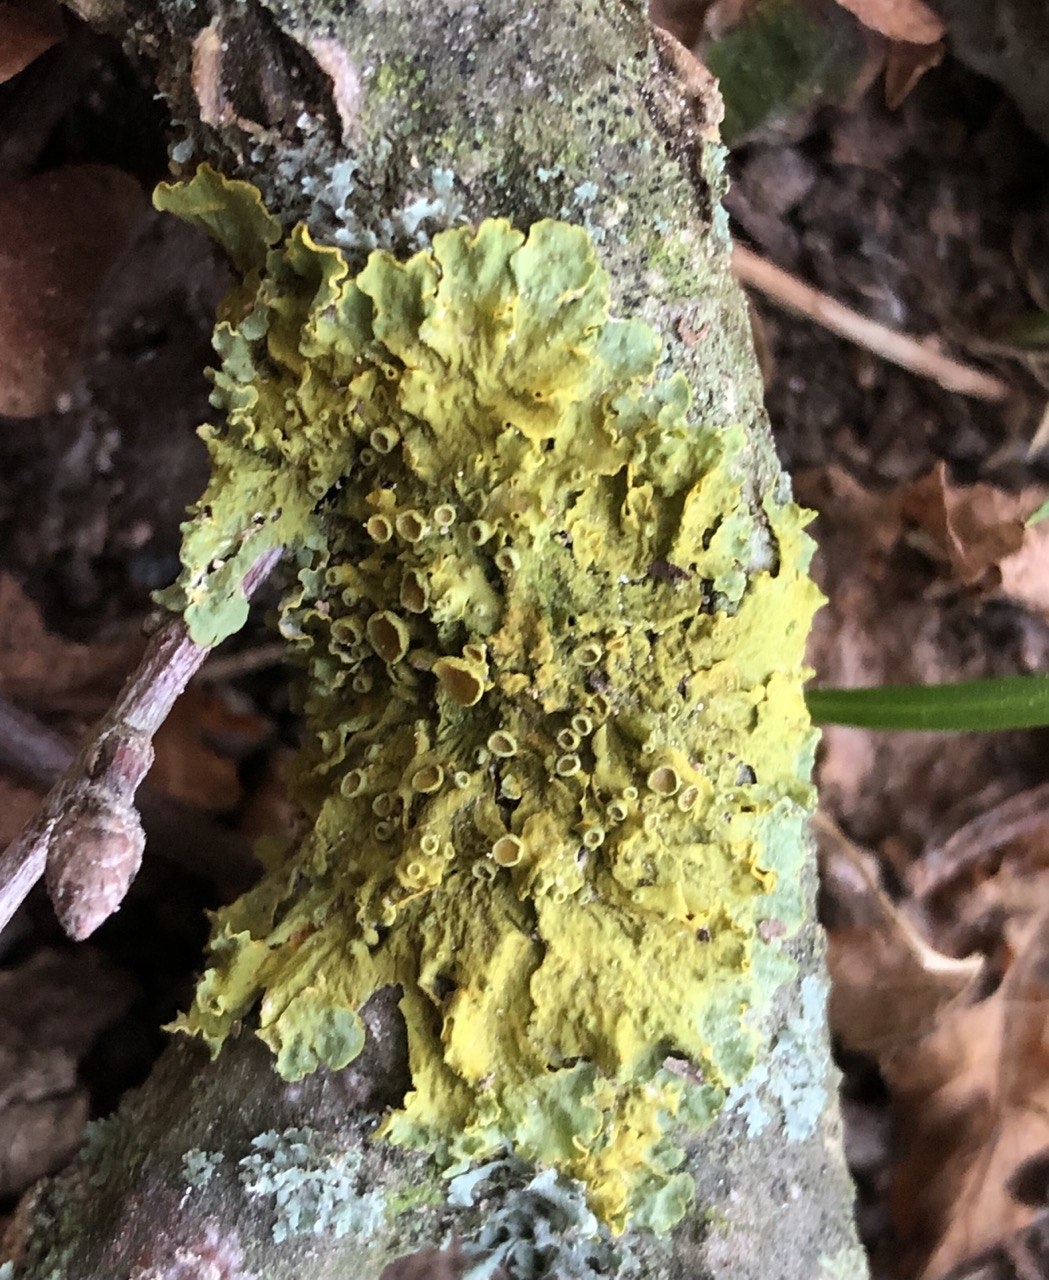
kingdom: Fungi
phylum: Ascomycota
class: Lecanoromycetes
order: Teloschistales
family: Teloschistaceae
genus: Xanthoria
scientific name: Xanthoria parietina
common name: Common orange lichen
